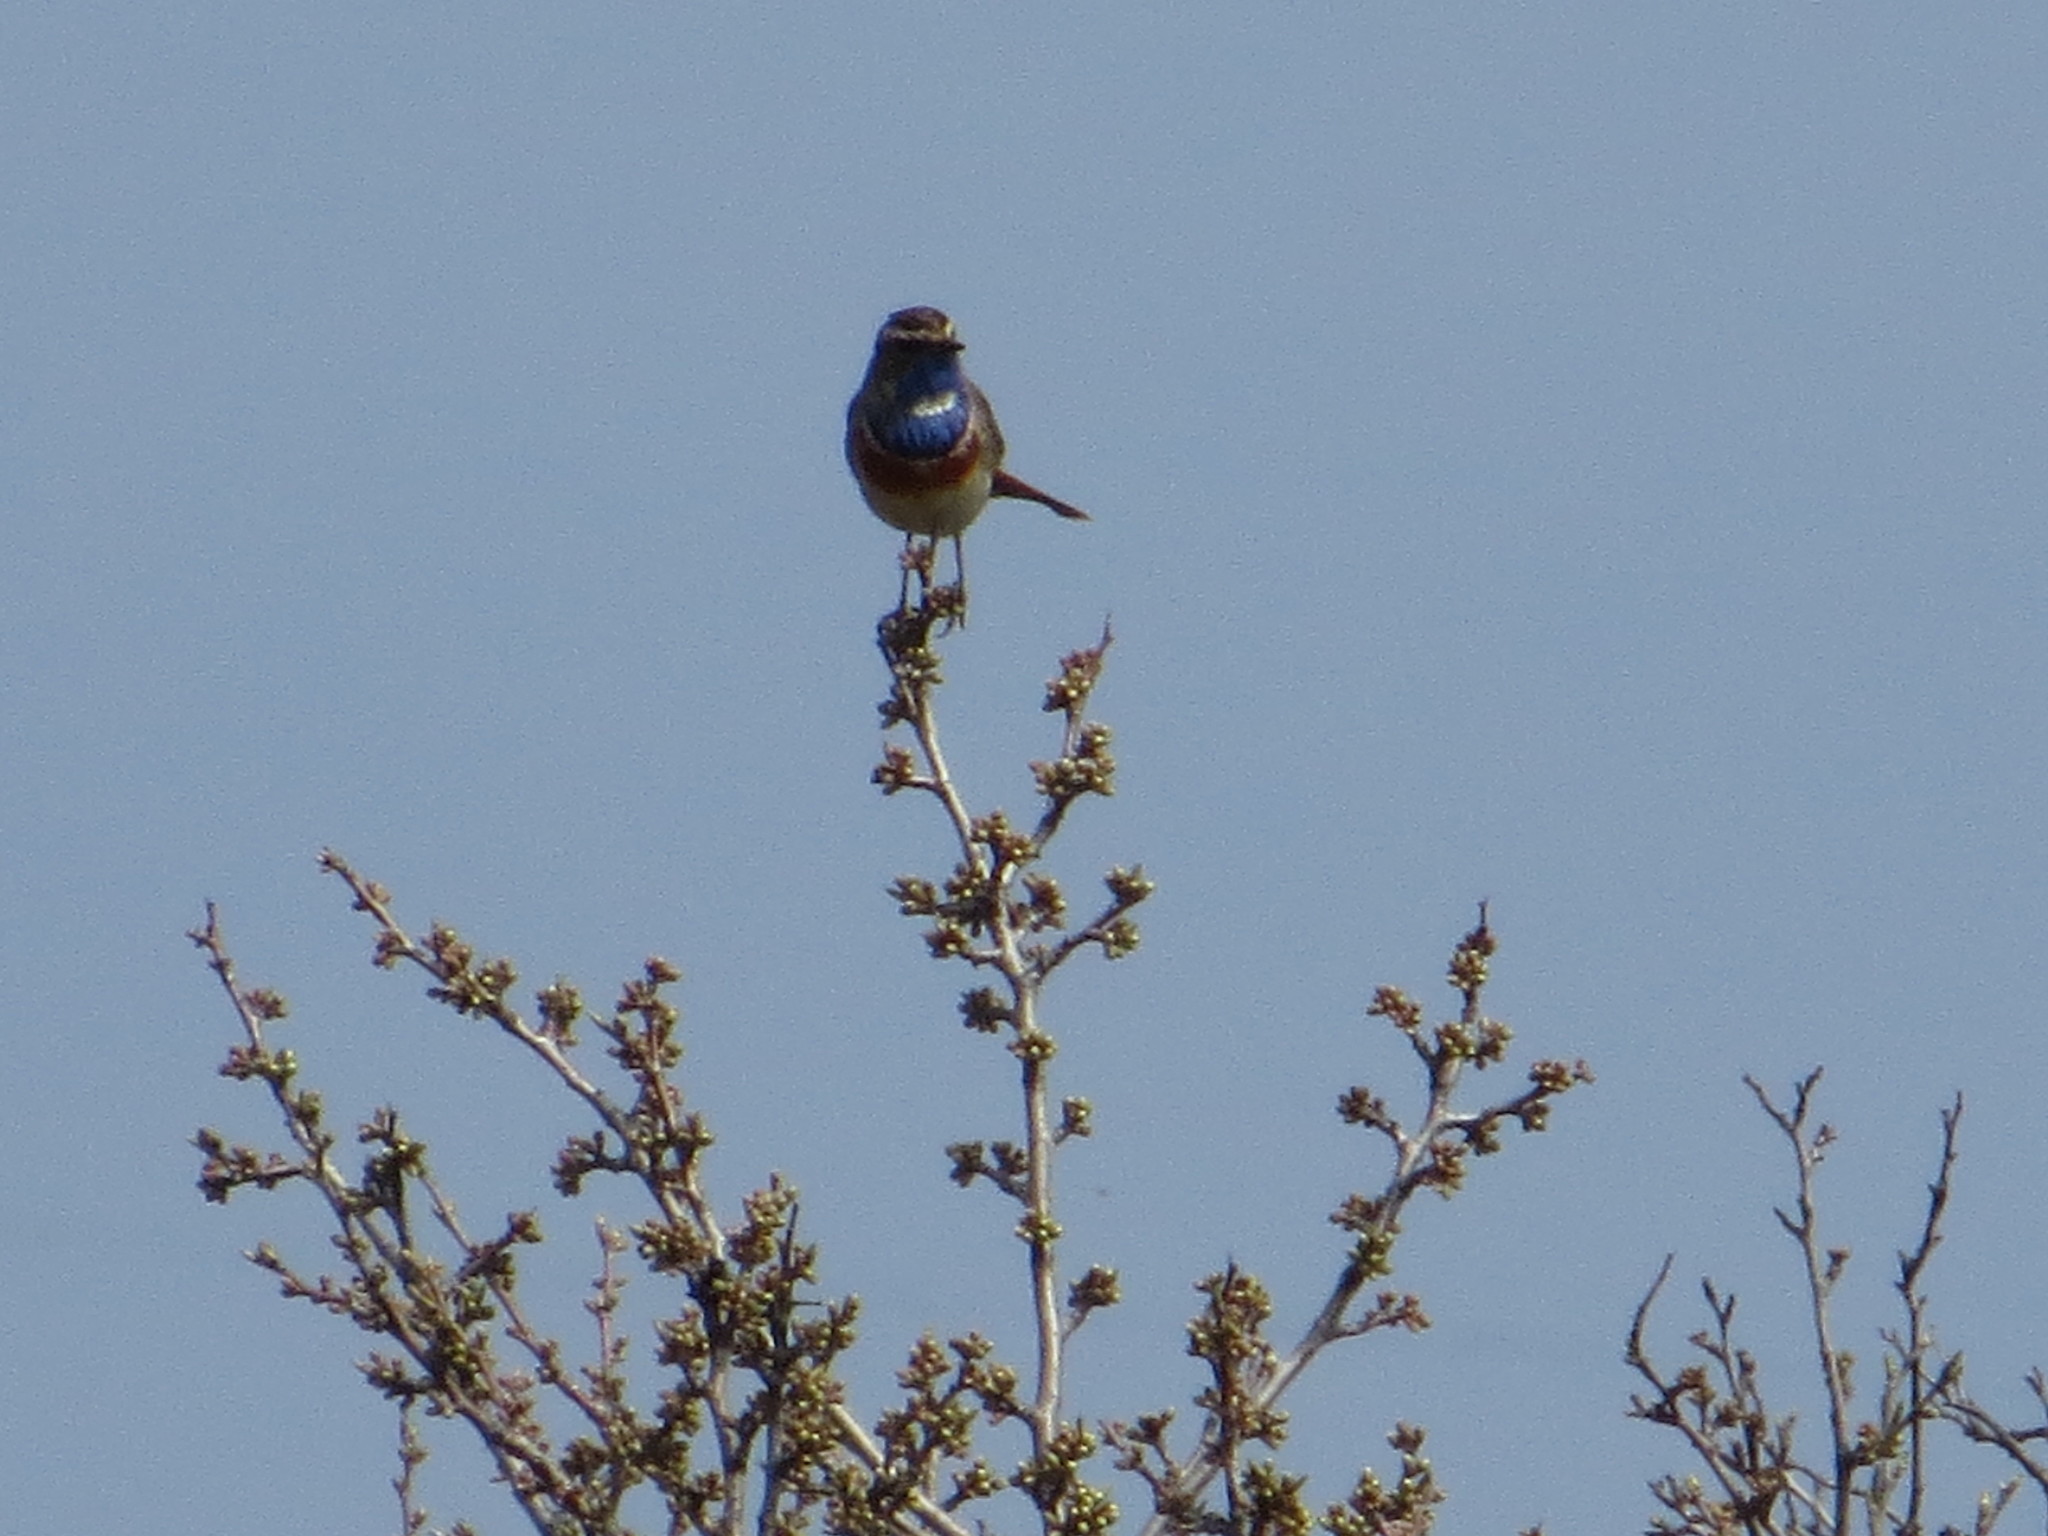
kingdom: Animalia
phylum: Chordata
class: Aves
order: Passeriformes
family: Muscicapidae
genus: Luscinia
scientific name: Luscinia svecica
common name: Bluethroat
